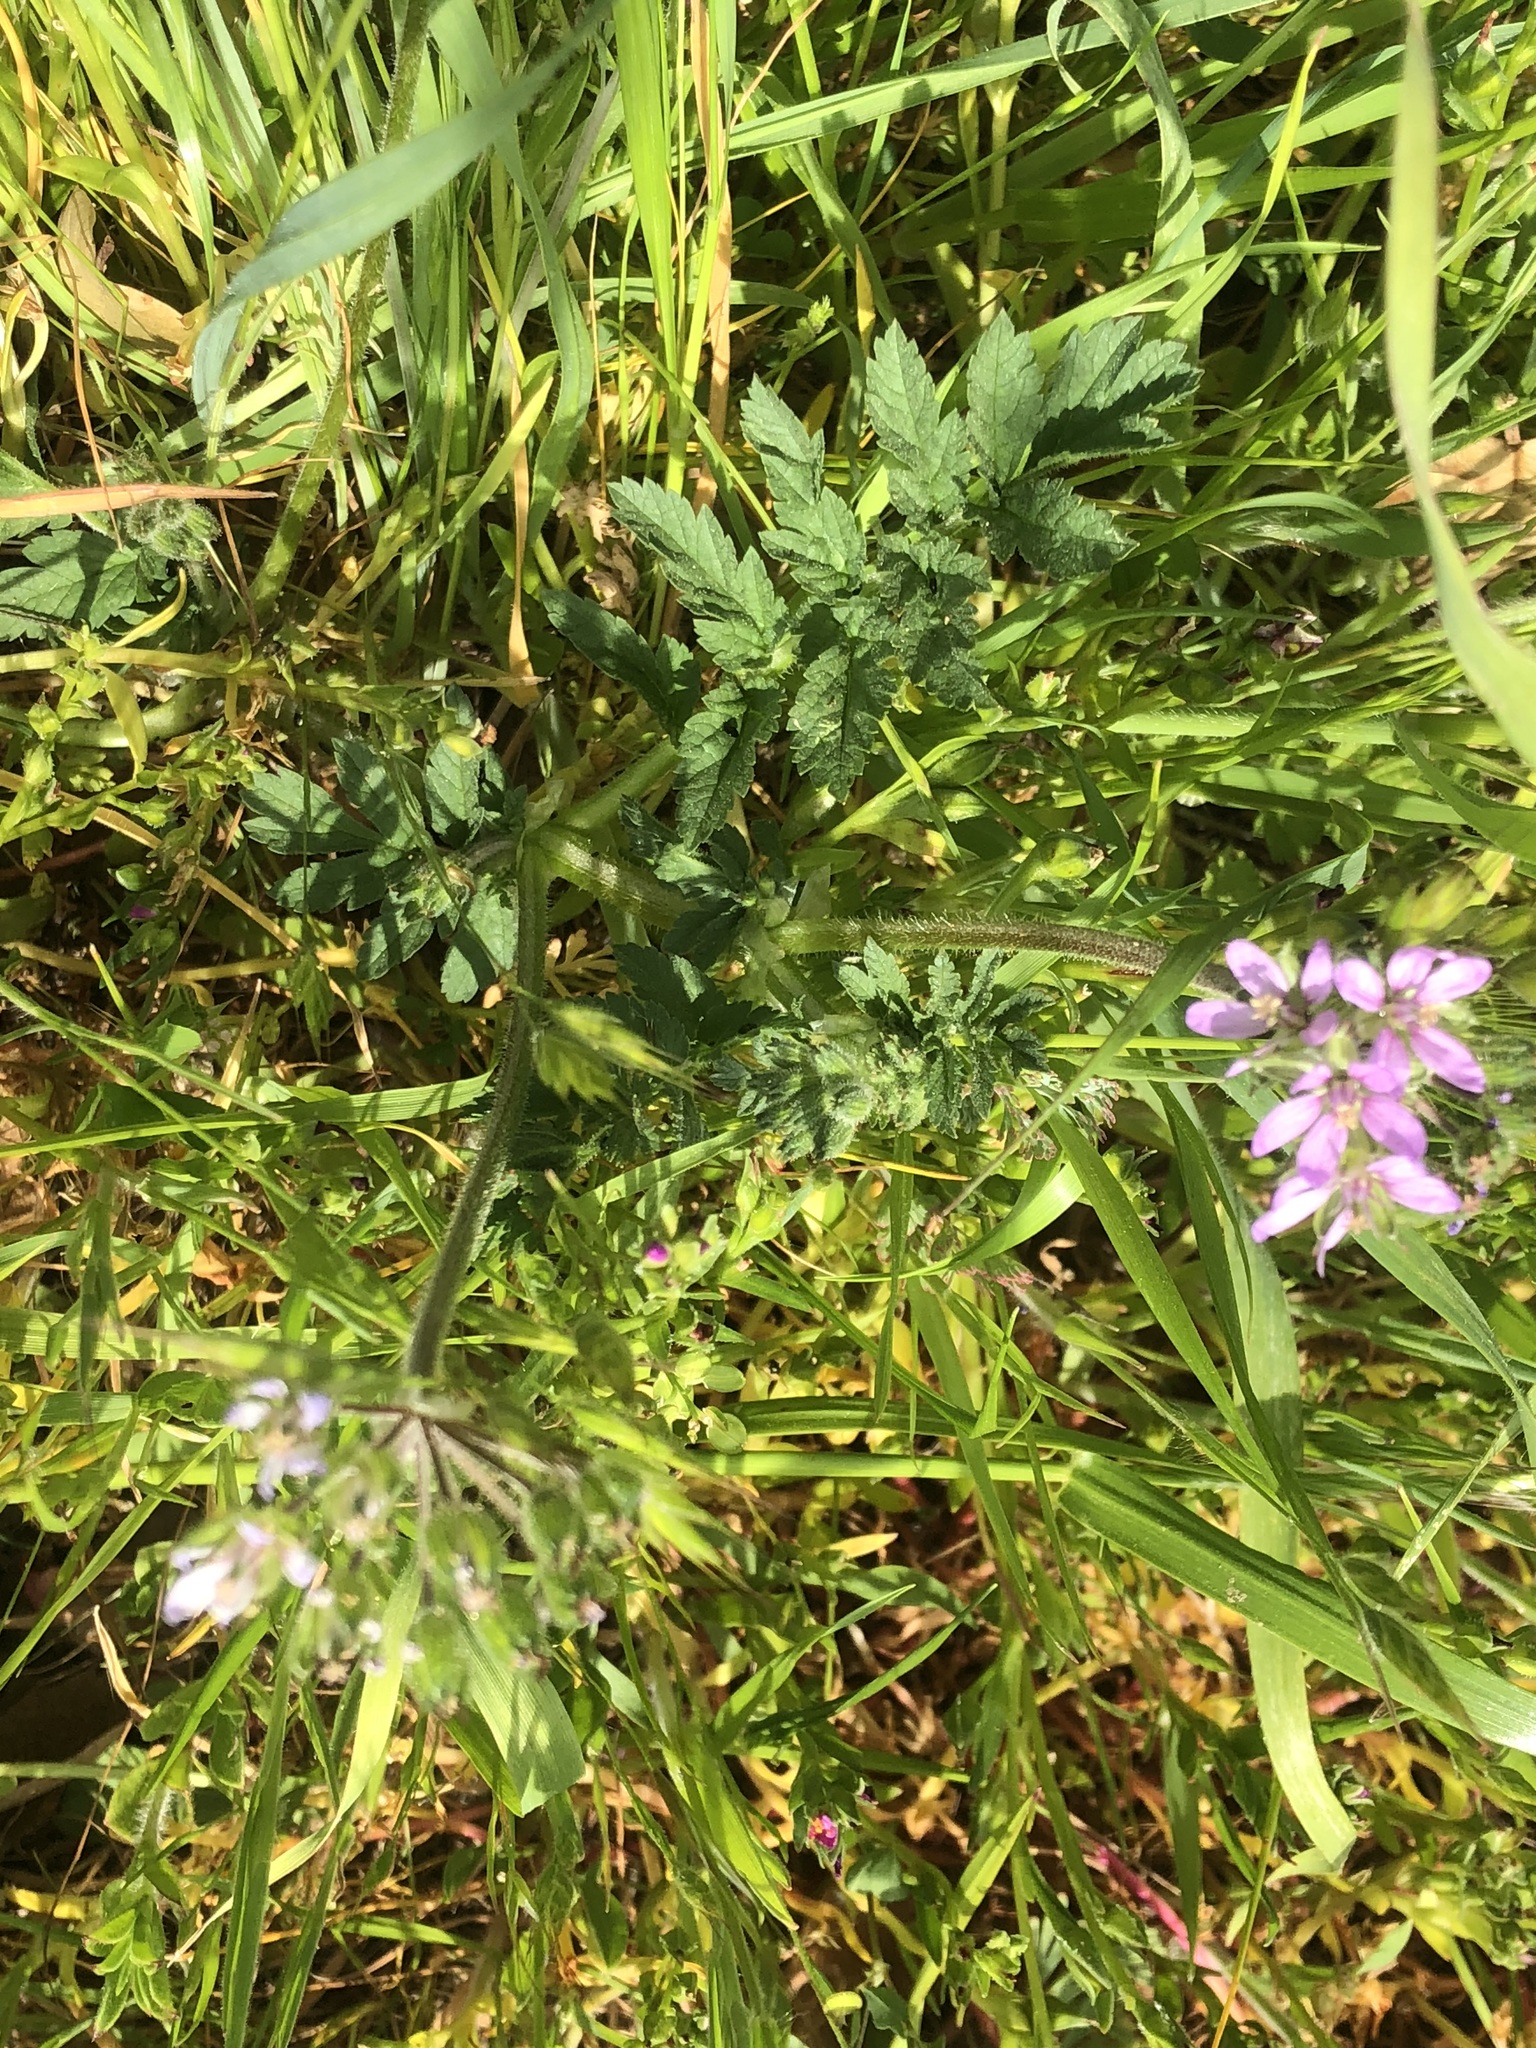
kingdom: Plantae
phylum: Tracheophyta
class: Magnoliopsida
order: Geraniales
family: Geraniaceae
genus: Erodium
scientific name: Erodium moschatum
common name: Musk stork's-bill
